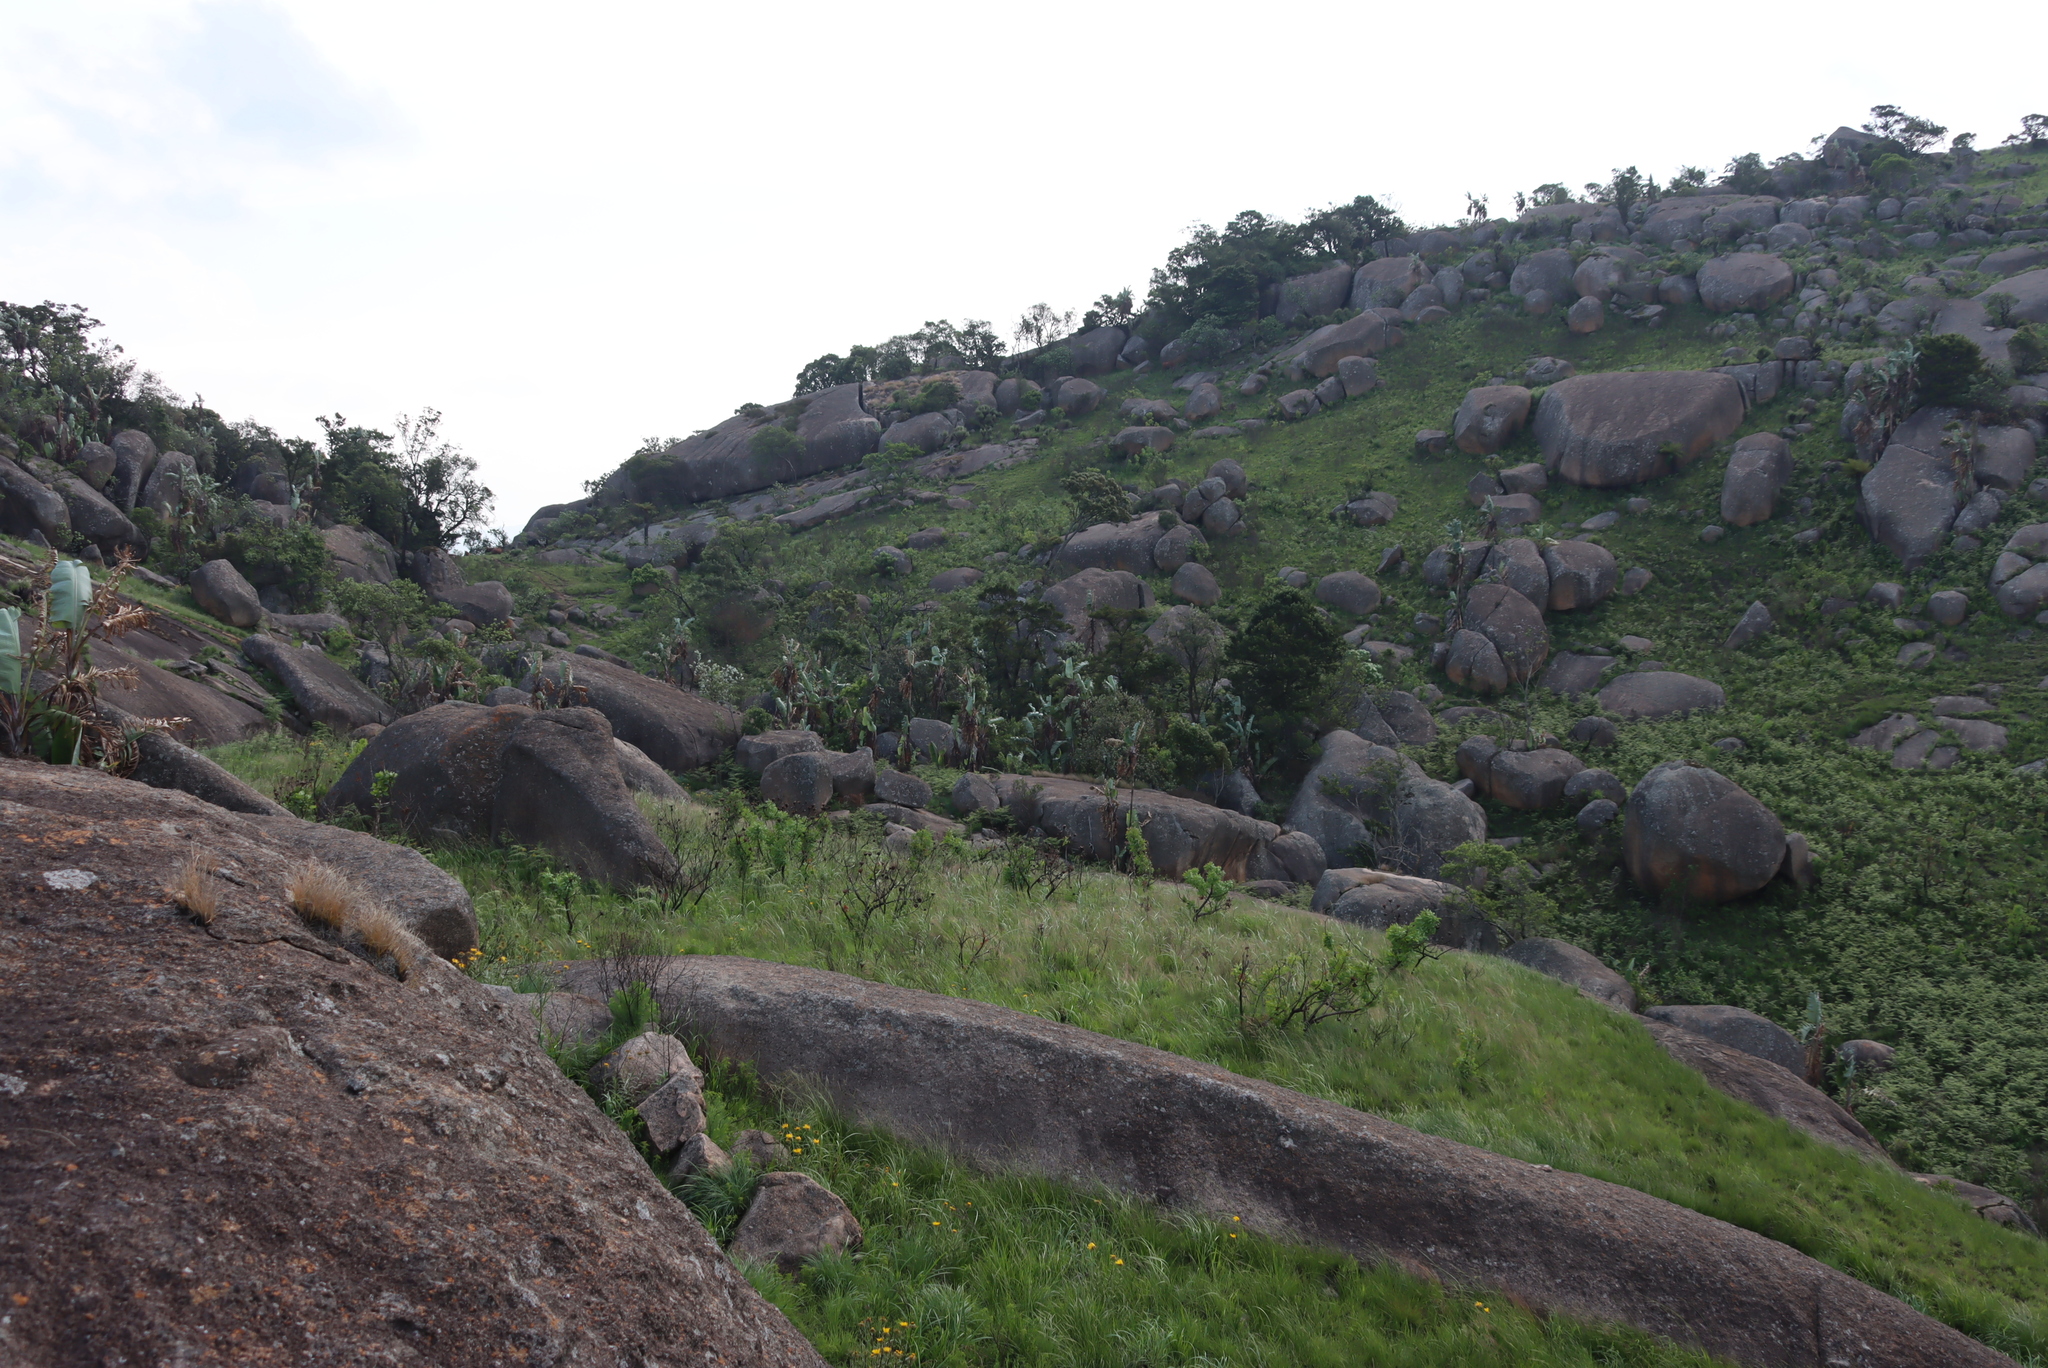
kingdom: Plantae
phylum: Tracheophyta
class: Liliopsida
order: Zingiberales
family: Strelitziaceae
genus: Strelitzia
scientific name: Strelitzia caudata
